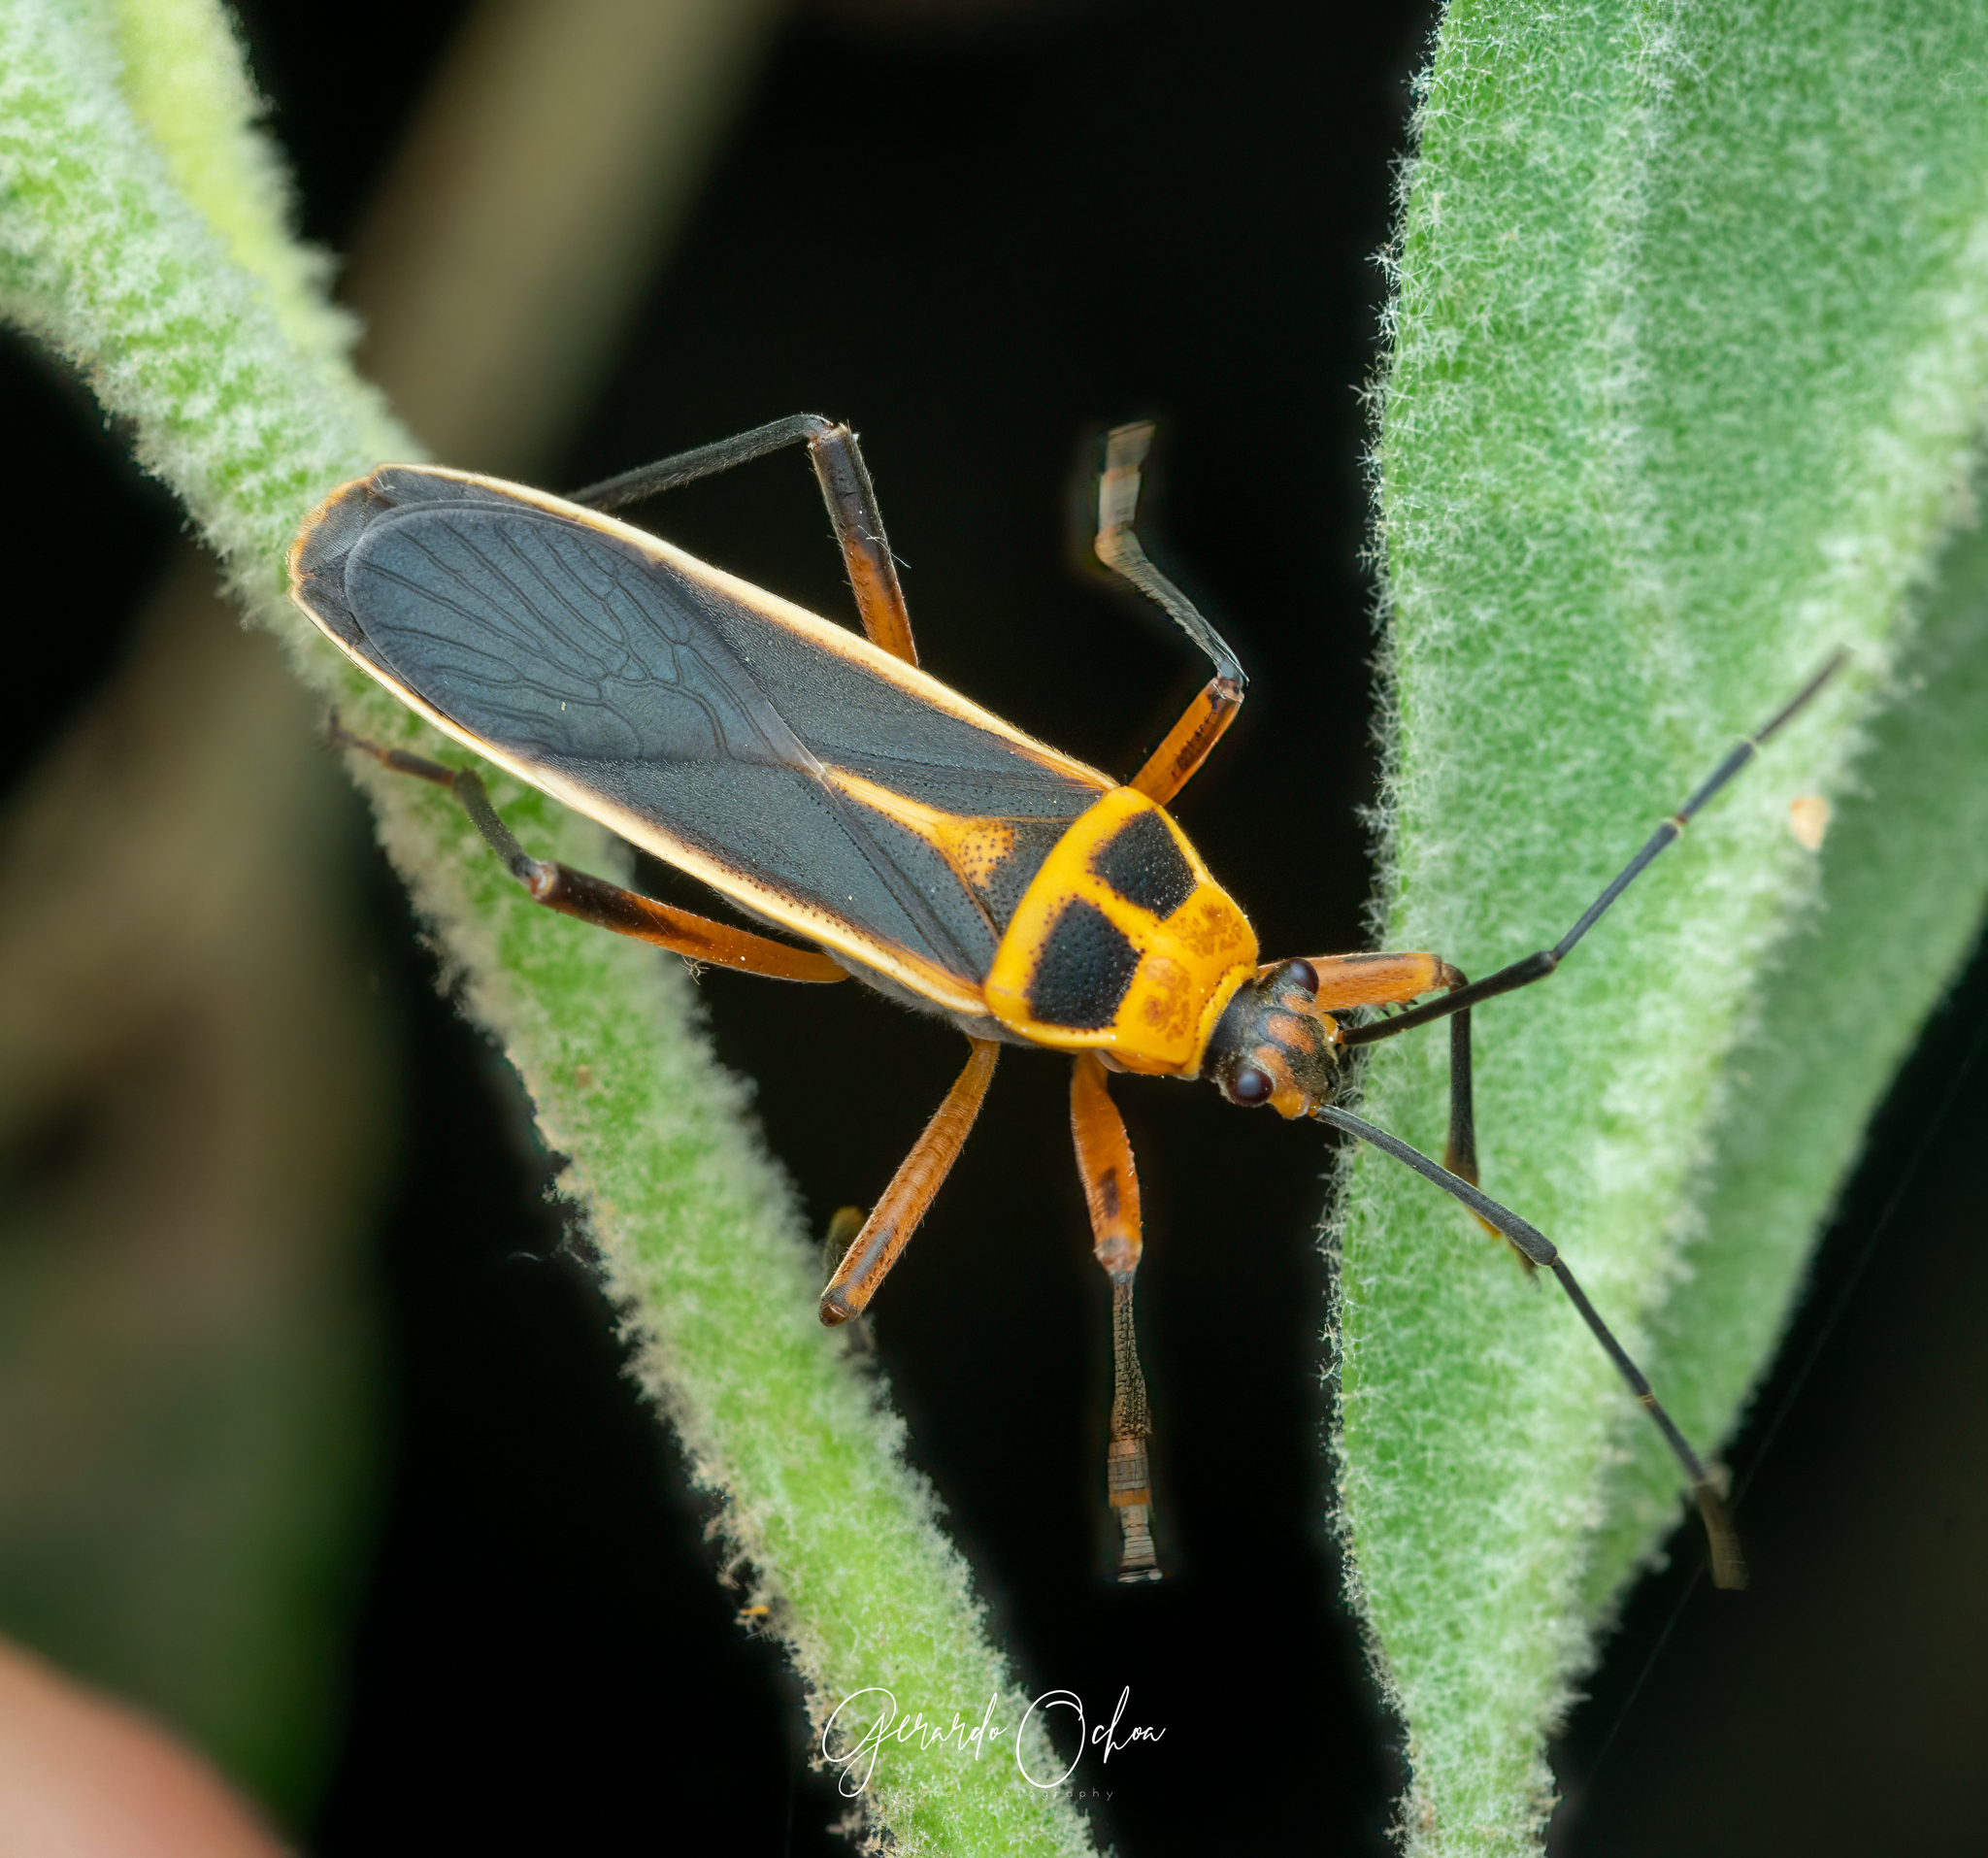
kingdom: Animalia
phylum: Arthropoda
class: Insecta
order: Hemiptera
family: Largidae
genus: Stenomacra
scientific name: Stenomacra marginella
